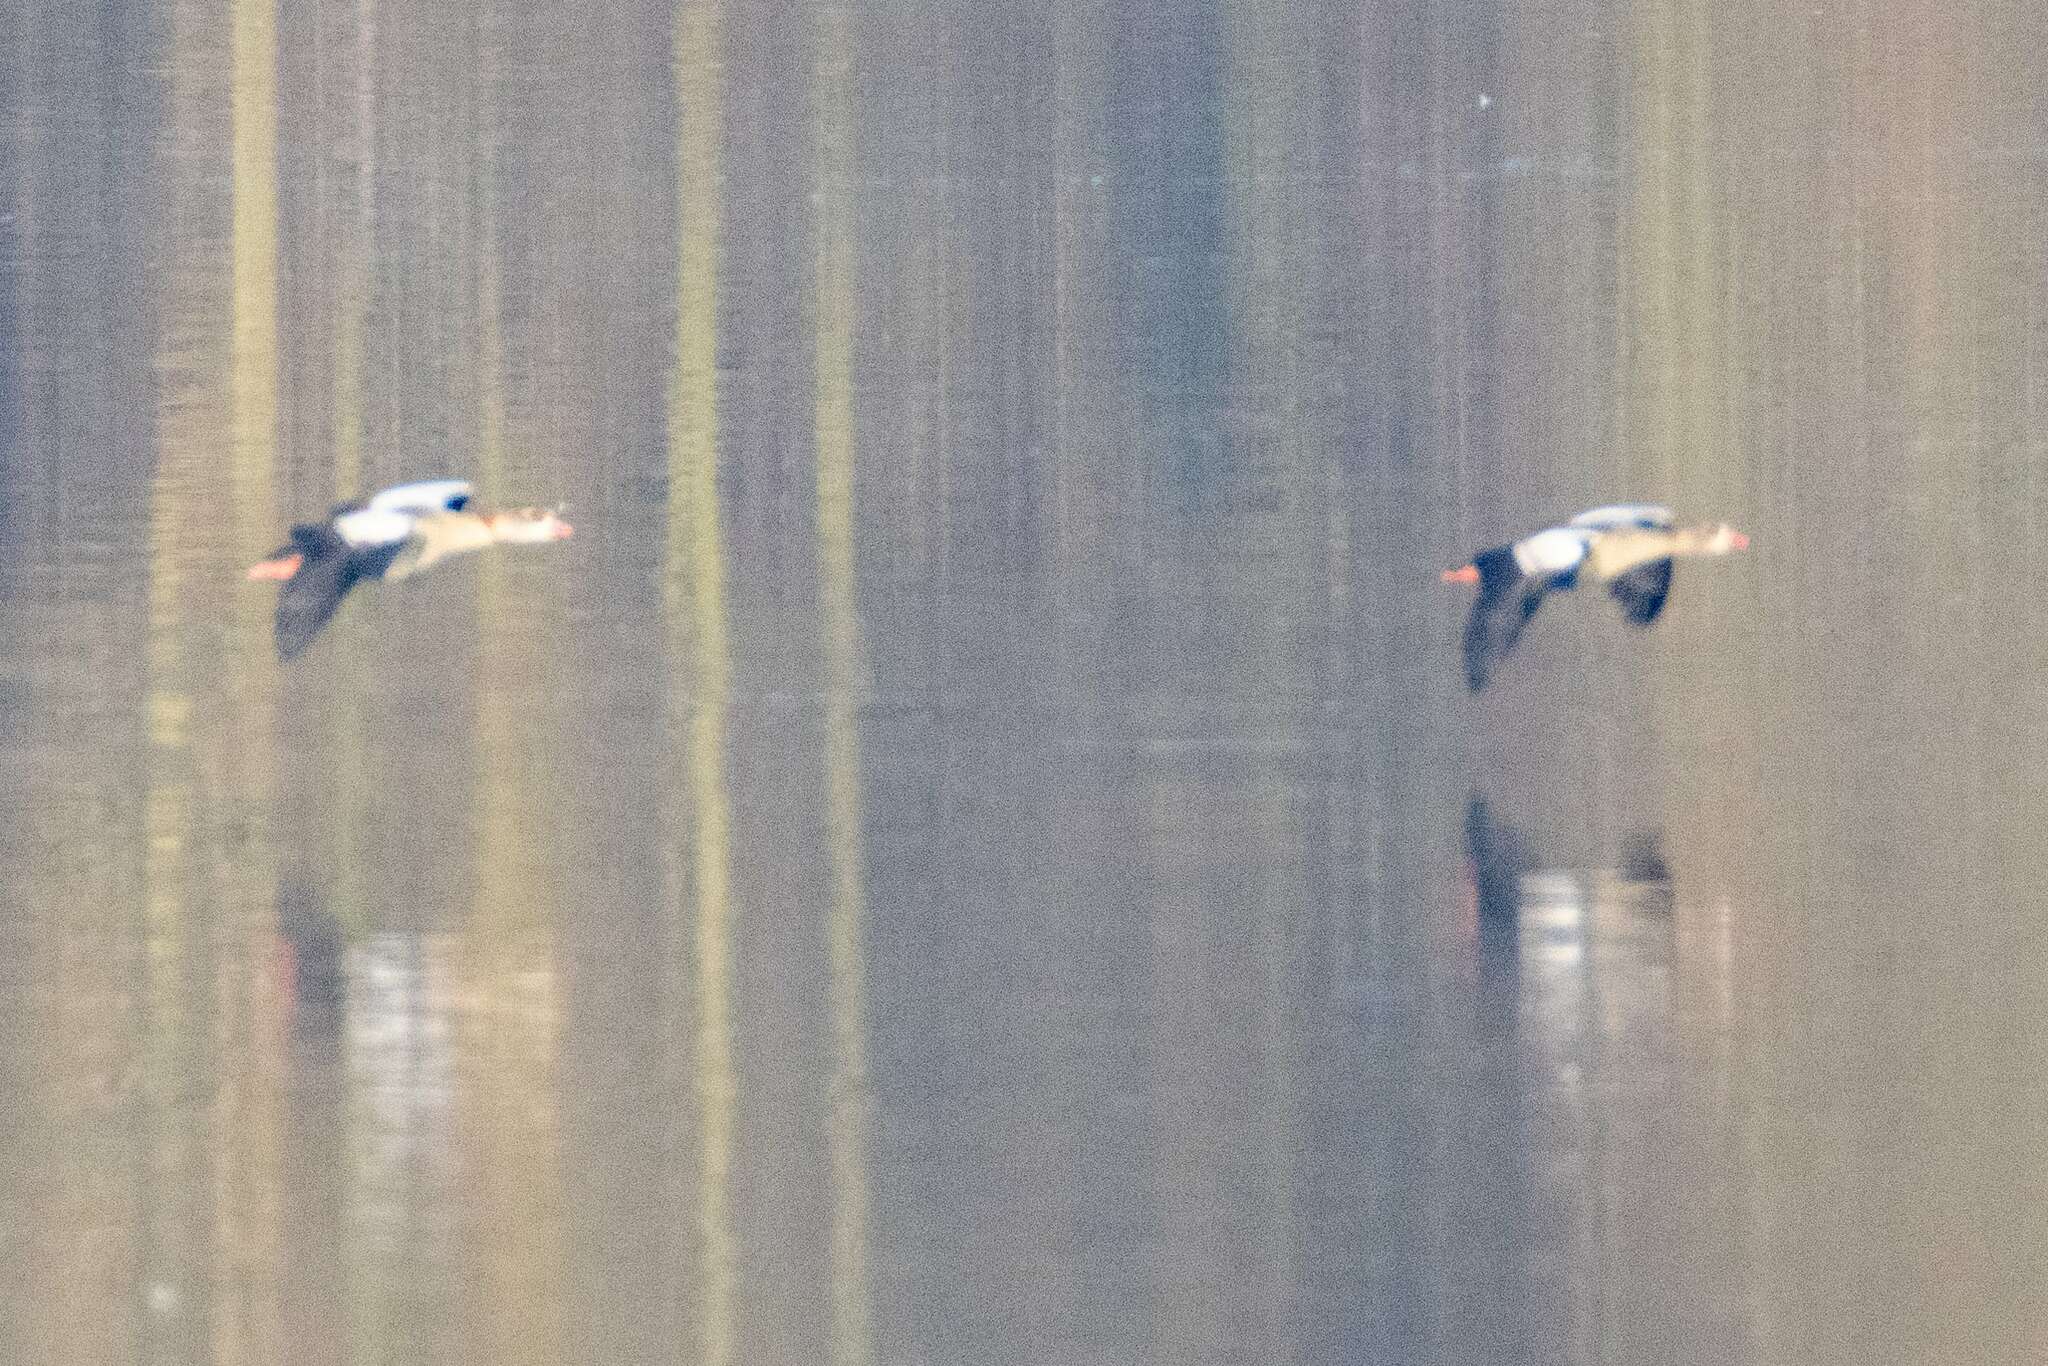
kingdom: Animalia
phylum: Chordata
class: Aves
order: Anseriformes
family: Anatidae
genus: Alopochen
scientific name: Alopochen aegyptiaca
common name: Egyptian goose
